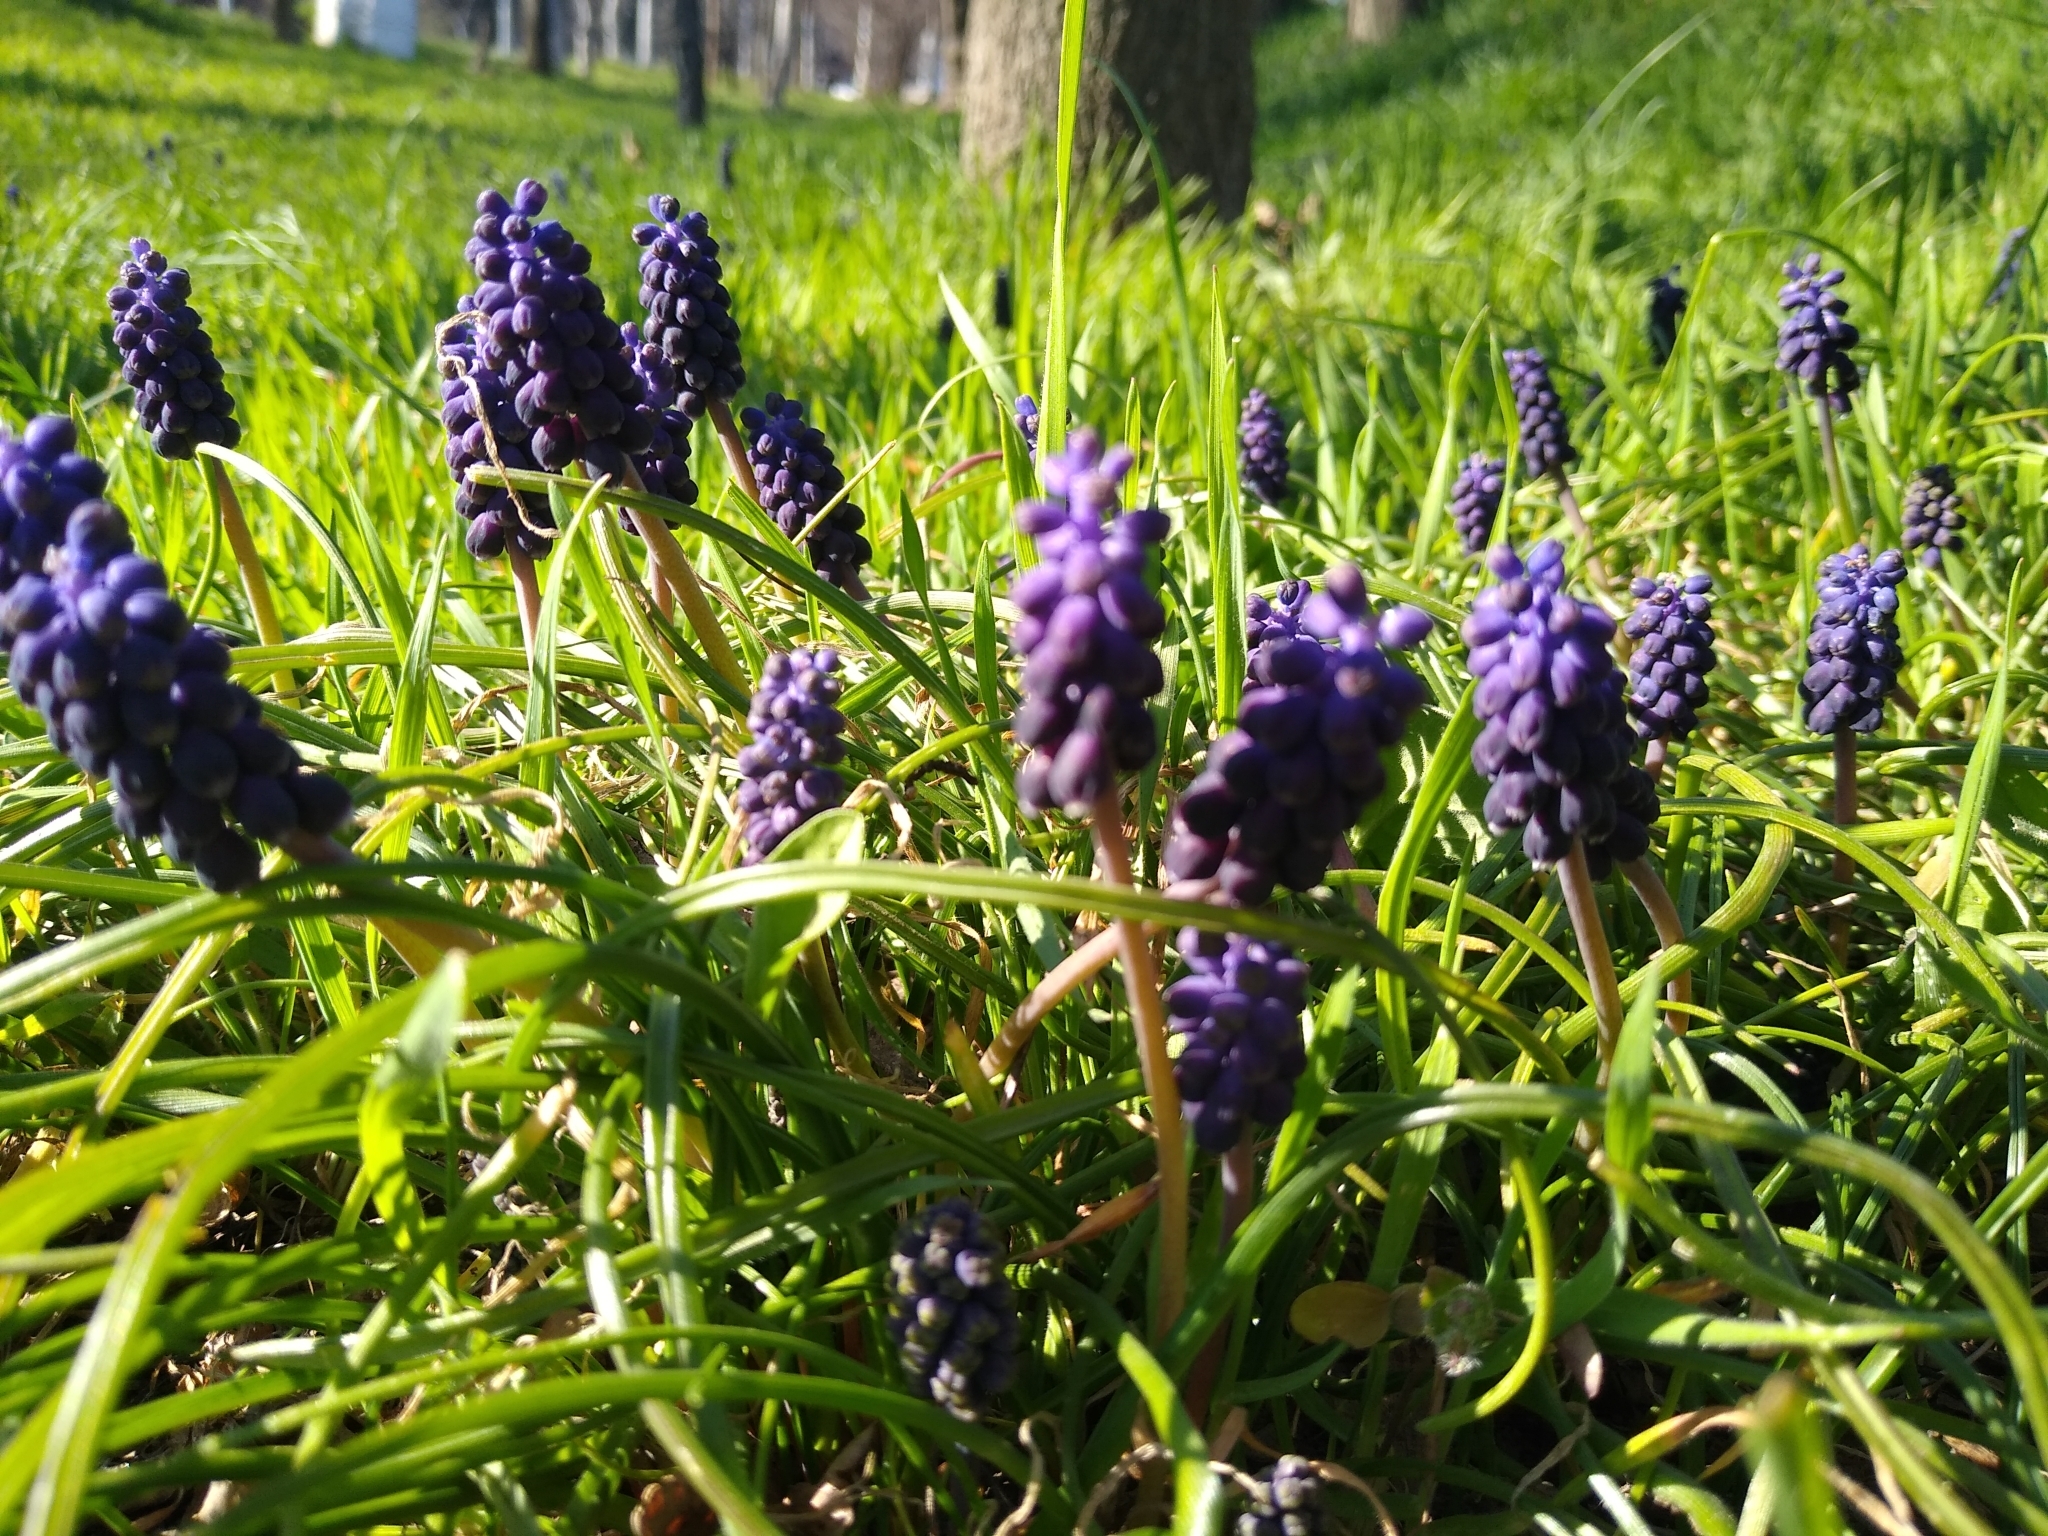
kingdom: Plantae
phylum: Tracheophyta
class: Liliopsida
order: Asparagales
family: Asparagaceae
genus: Muscari
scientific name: Muscari neglectum
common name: Grape-hyacinth
